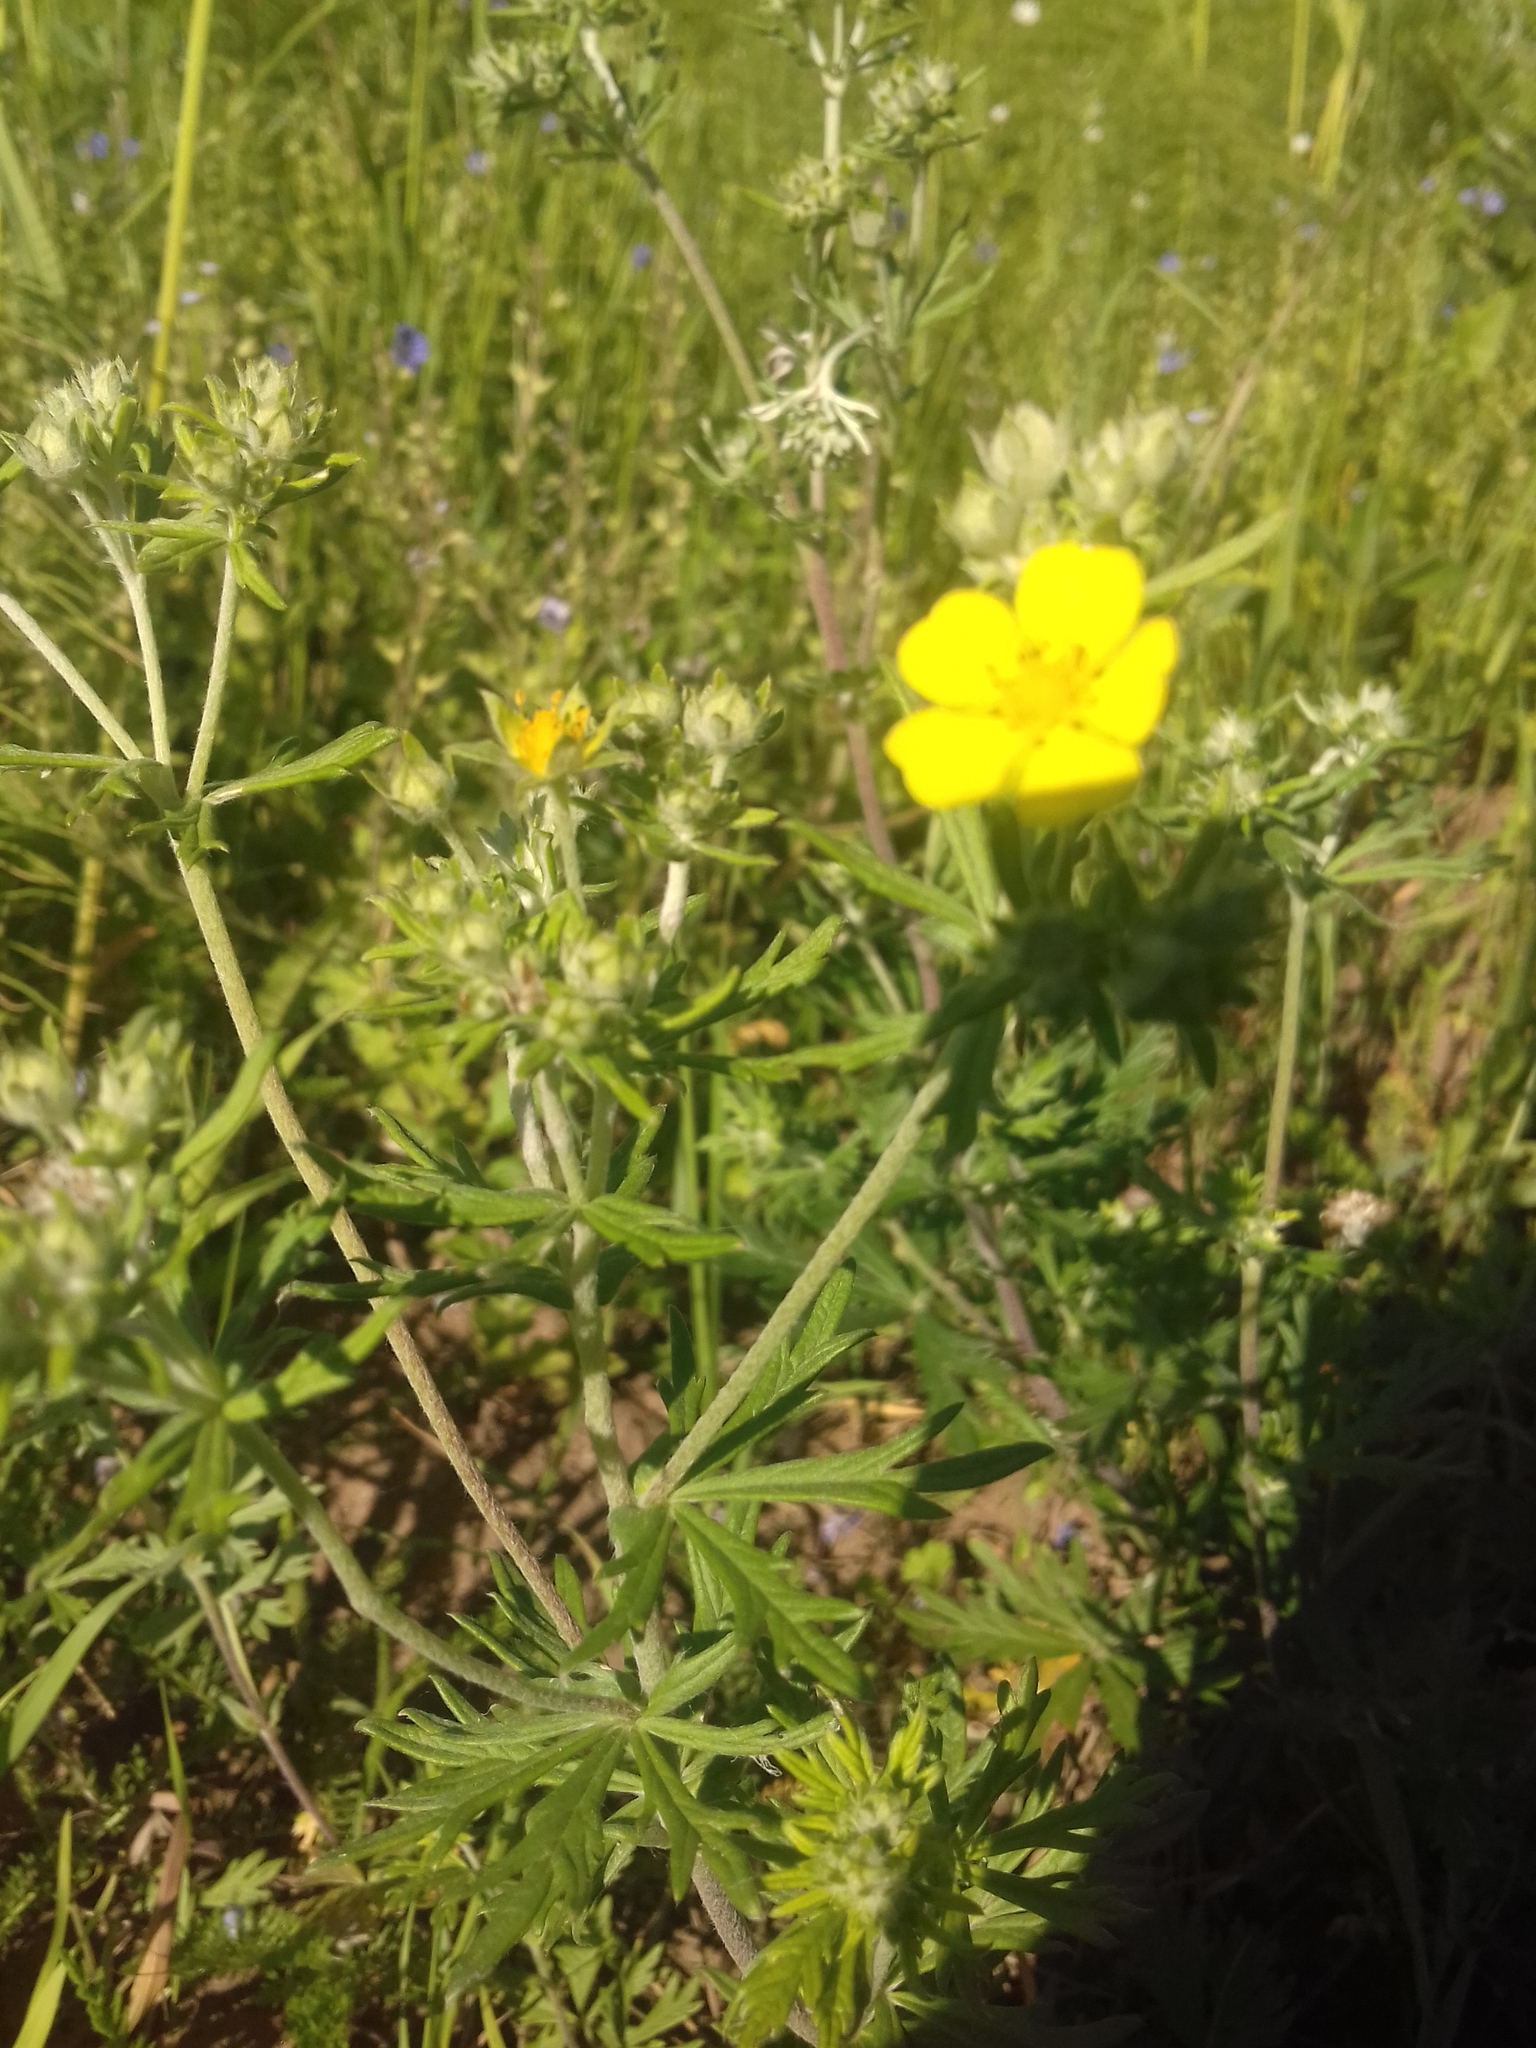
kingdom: Plantae
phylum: Tracheophyta
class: Magnoliopsida
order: Rosales
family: Rosaceae
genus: Potentilla
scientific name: Potentilla argentea
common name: Hoary cinquefoil
